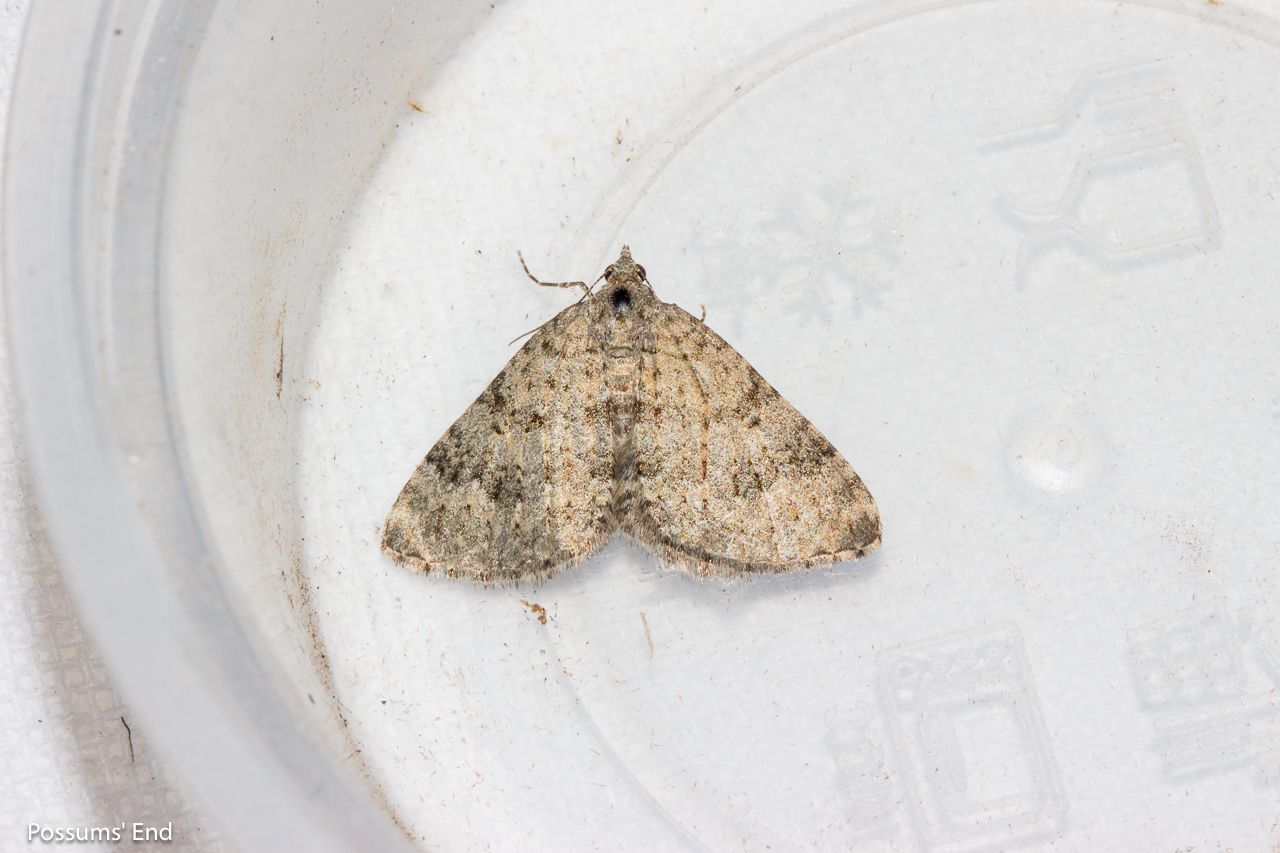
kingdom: Animalia
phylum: Arthropoda
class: Insecta
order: Lepidoptera
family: Geometridae
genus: Helastia
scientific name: Helastia corcularia
